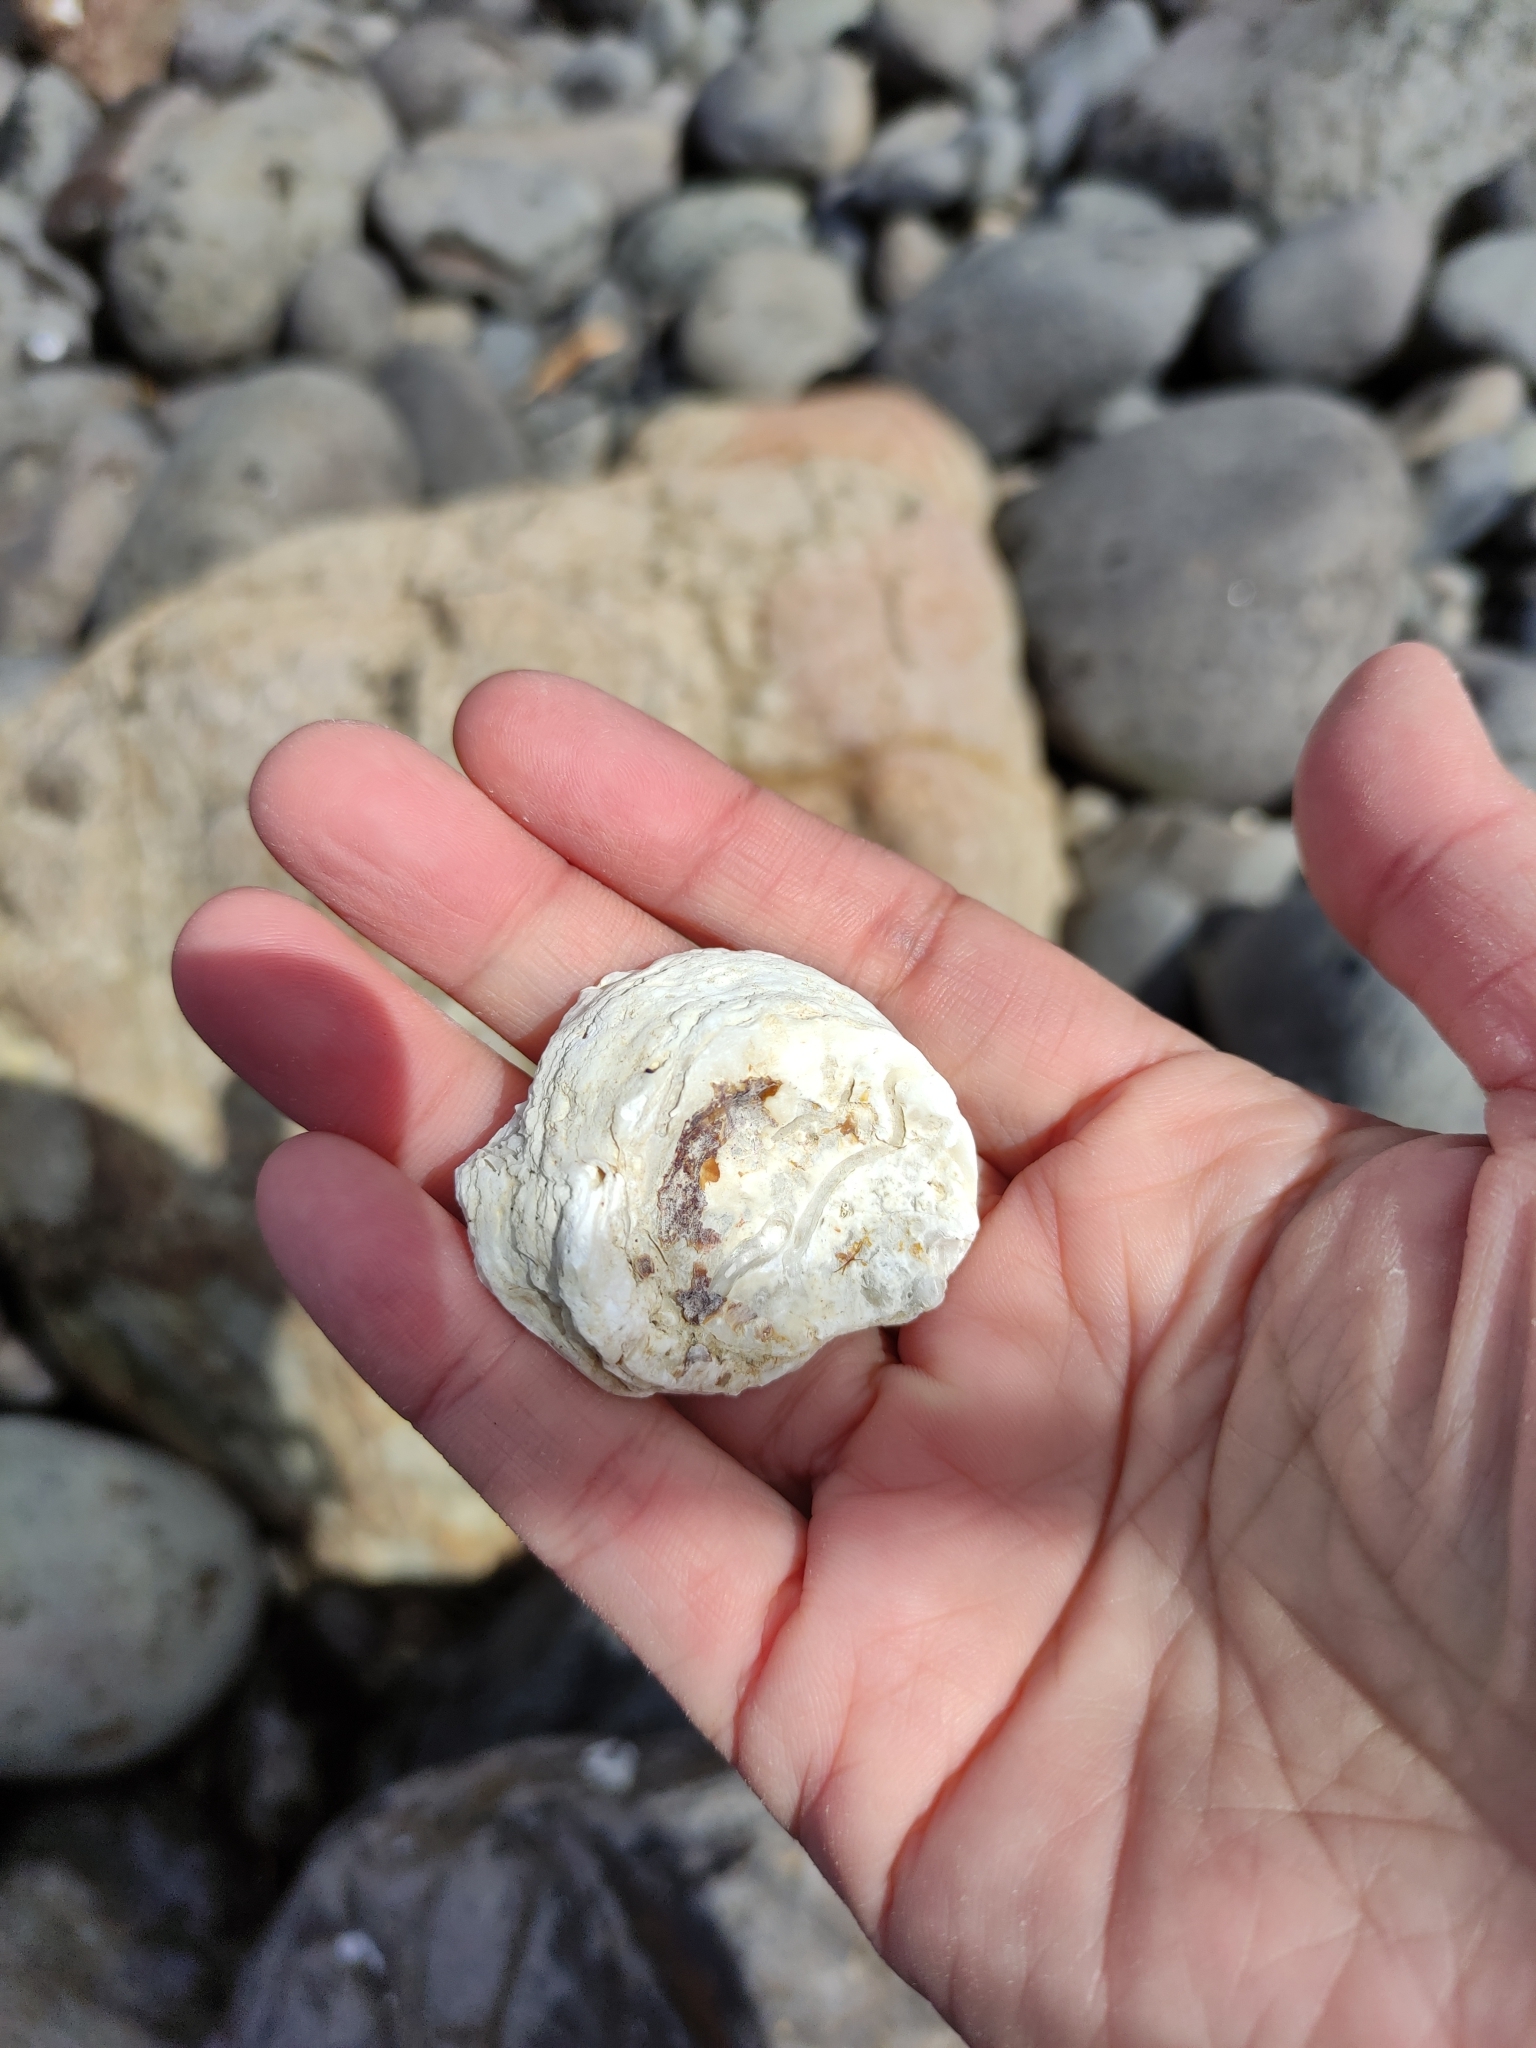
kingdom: Animalia
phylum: Mollusca
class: Bivalvia
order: Ostreida
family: Ostreidae
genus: Ostrea
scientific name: Ostrea chilensis
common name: Chilean oyster
